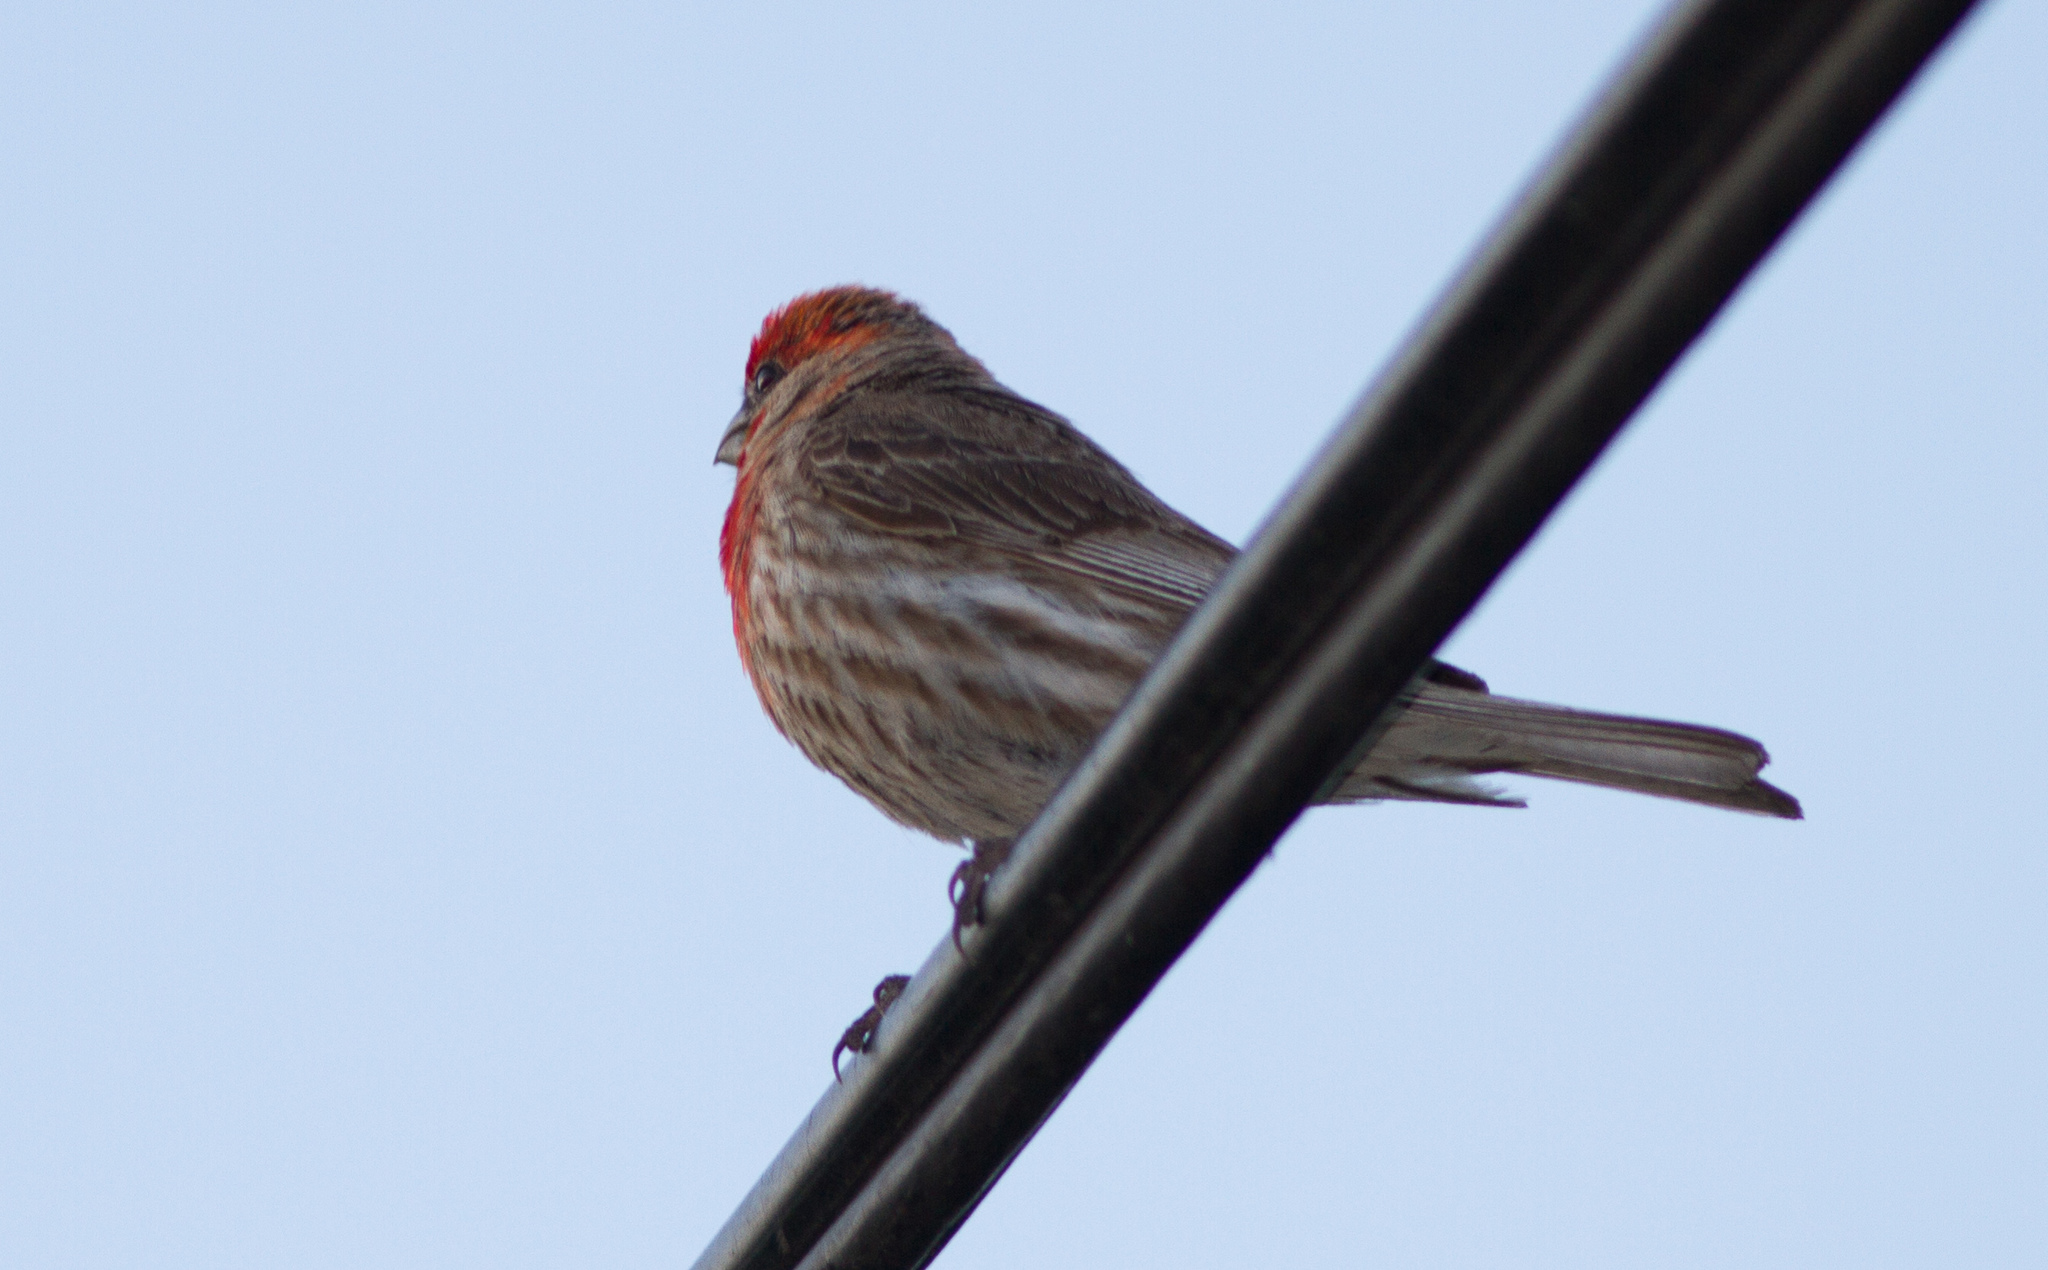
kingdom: Animalia
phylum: Chordata
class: Aves
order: Passeriformes
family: Fringillidae
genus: Haemorhous
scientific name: Haemorhous mexicanus
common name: House finch
